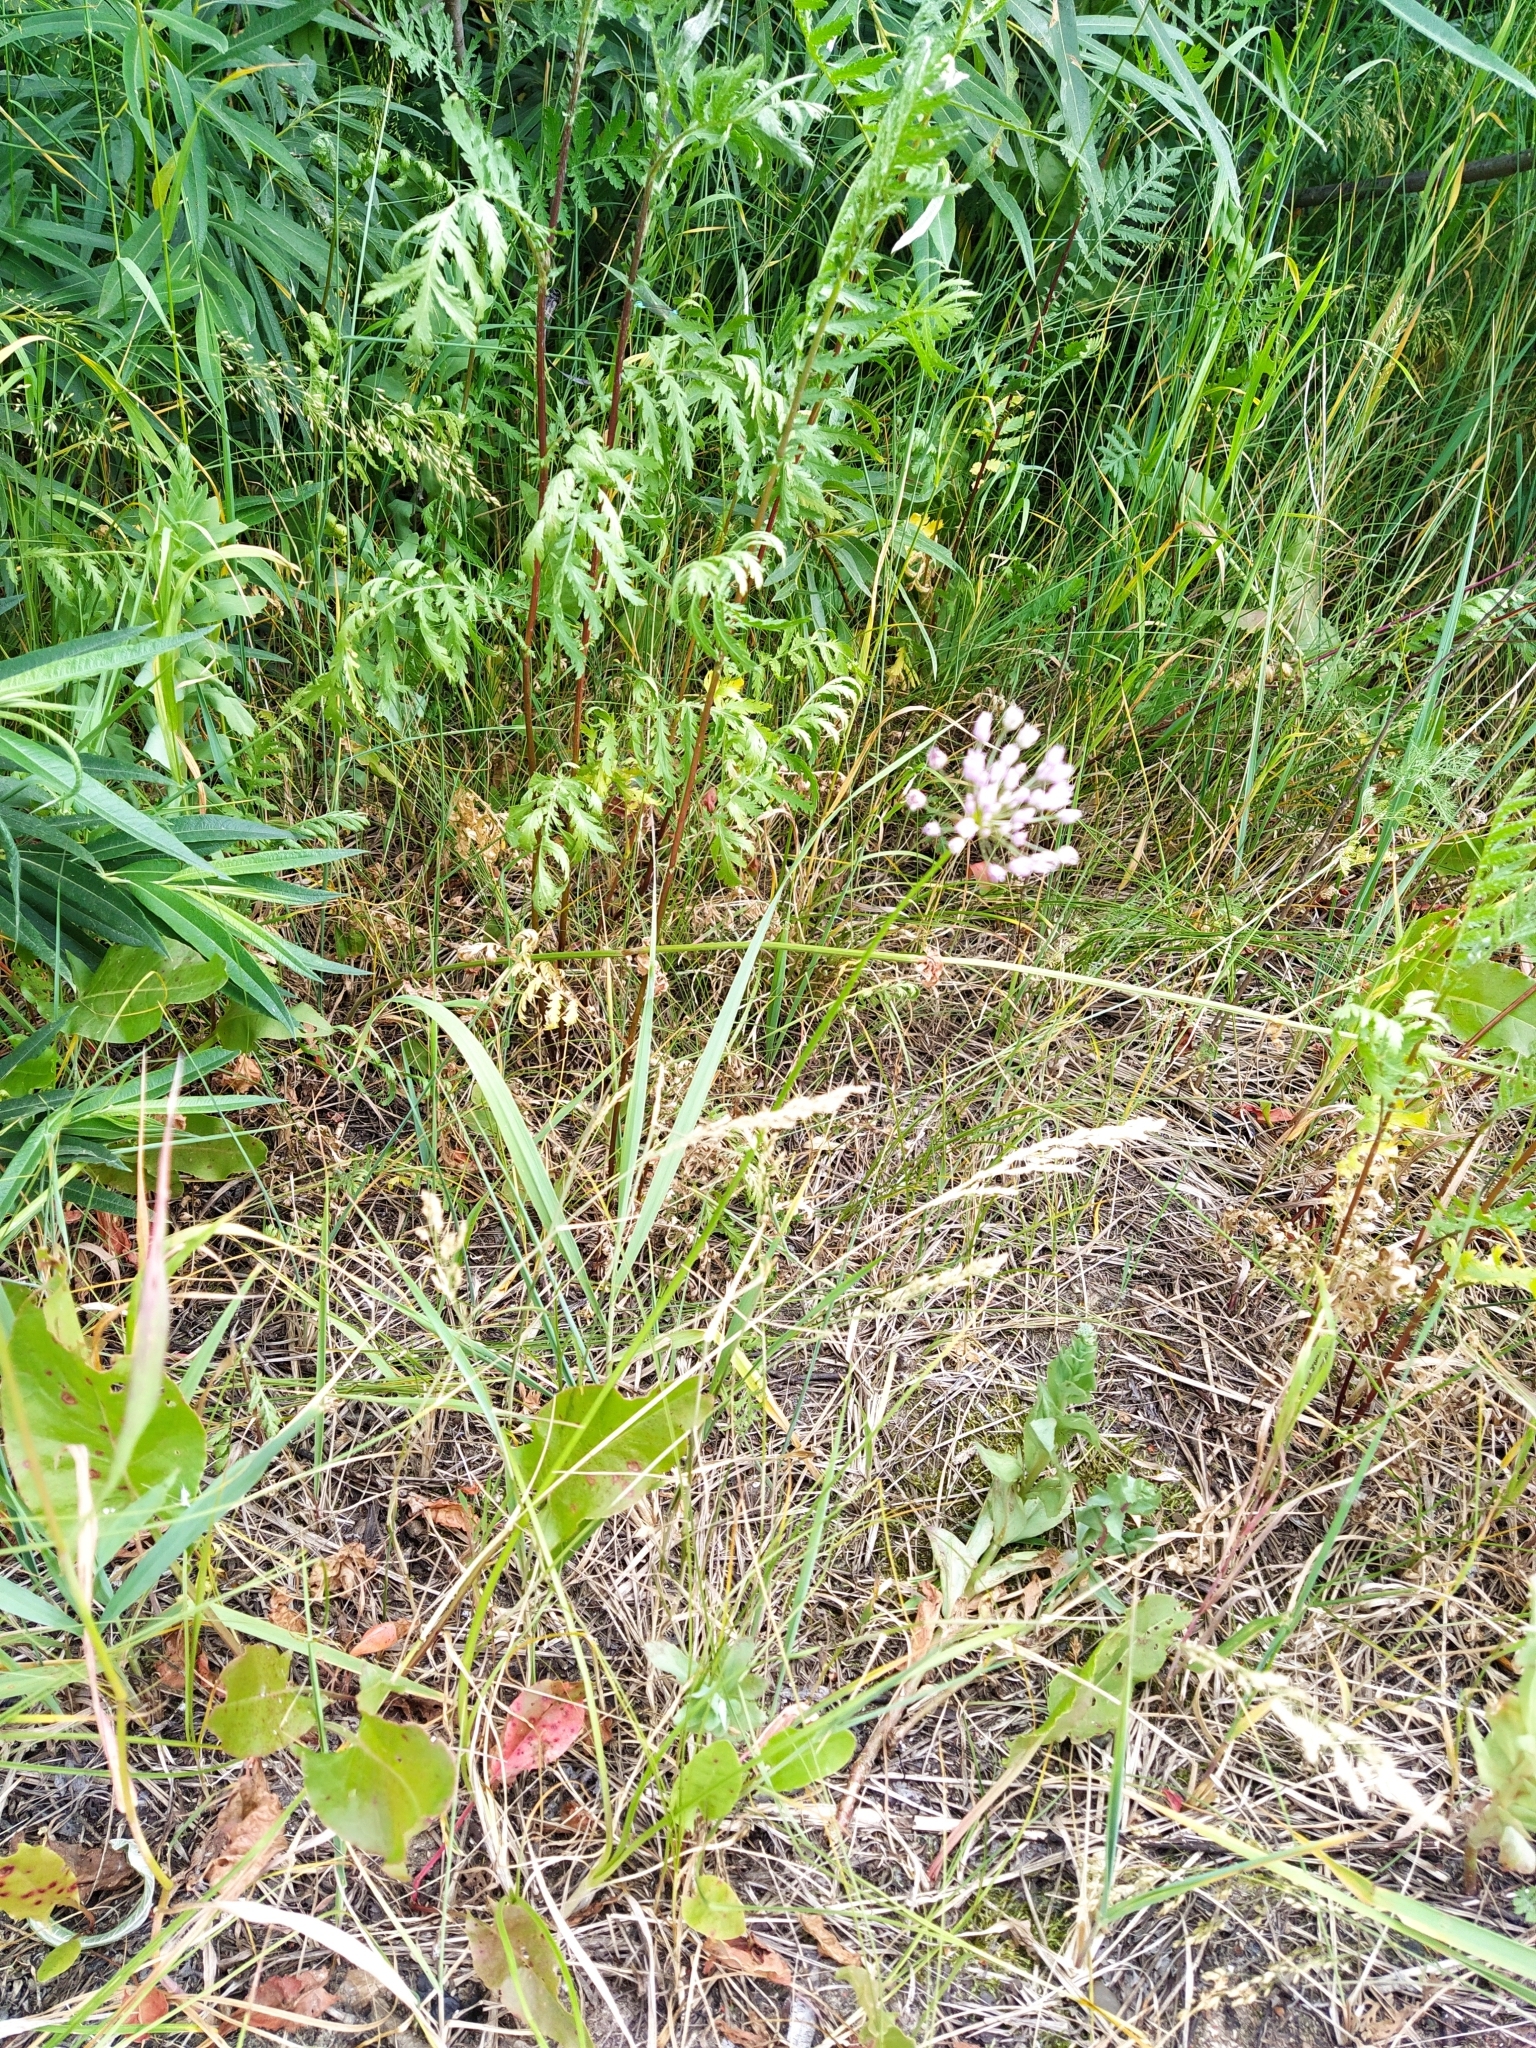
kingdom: Plantae
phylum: Tracheophyta
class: Liliopsida
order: Asparagales
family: Amaryllidaceae
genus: Allium
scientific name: Allium angulosum
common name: Mouse garlic
